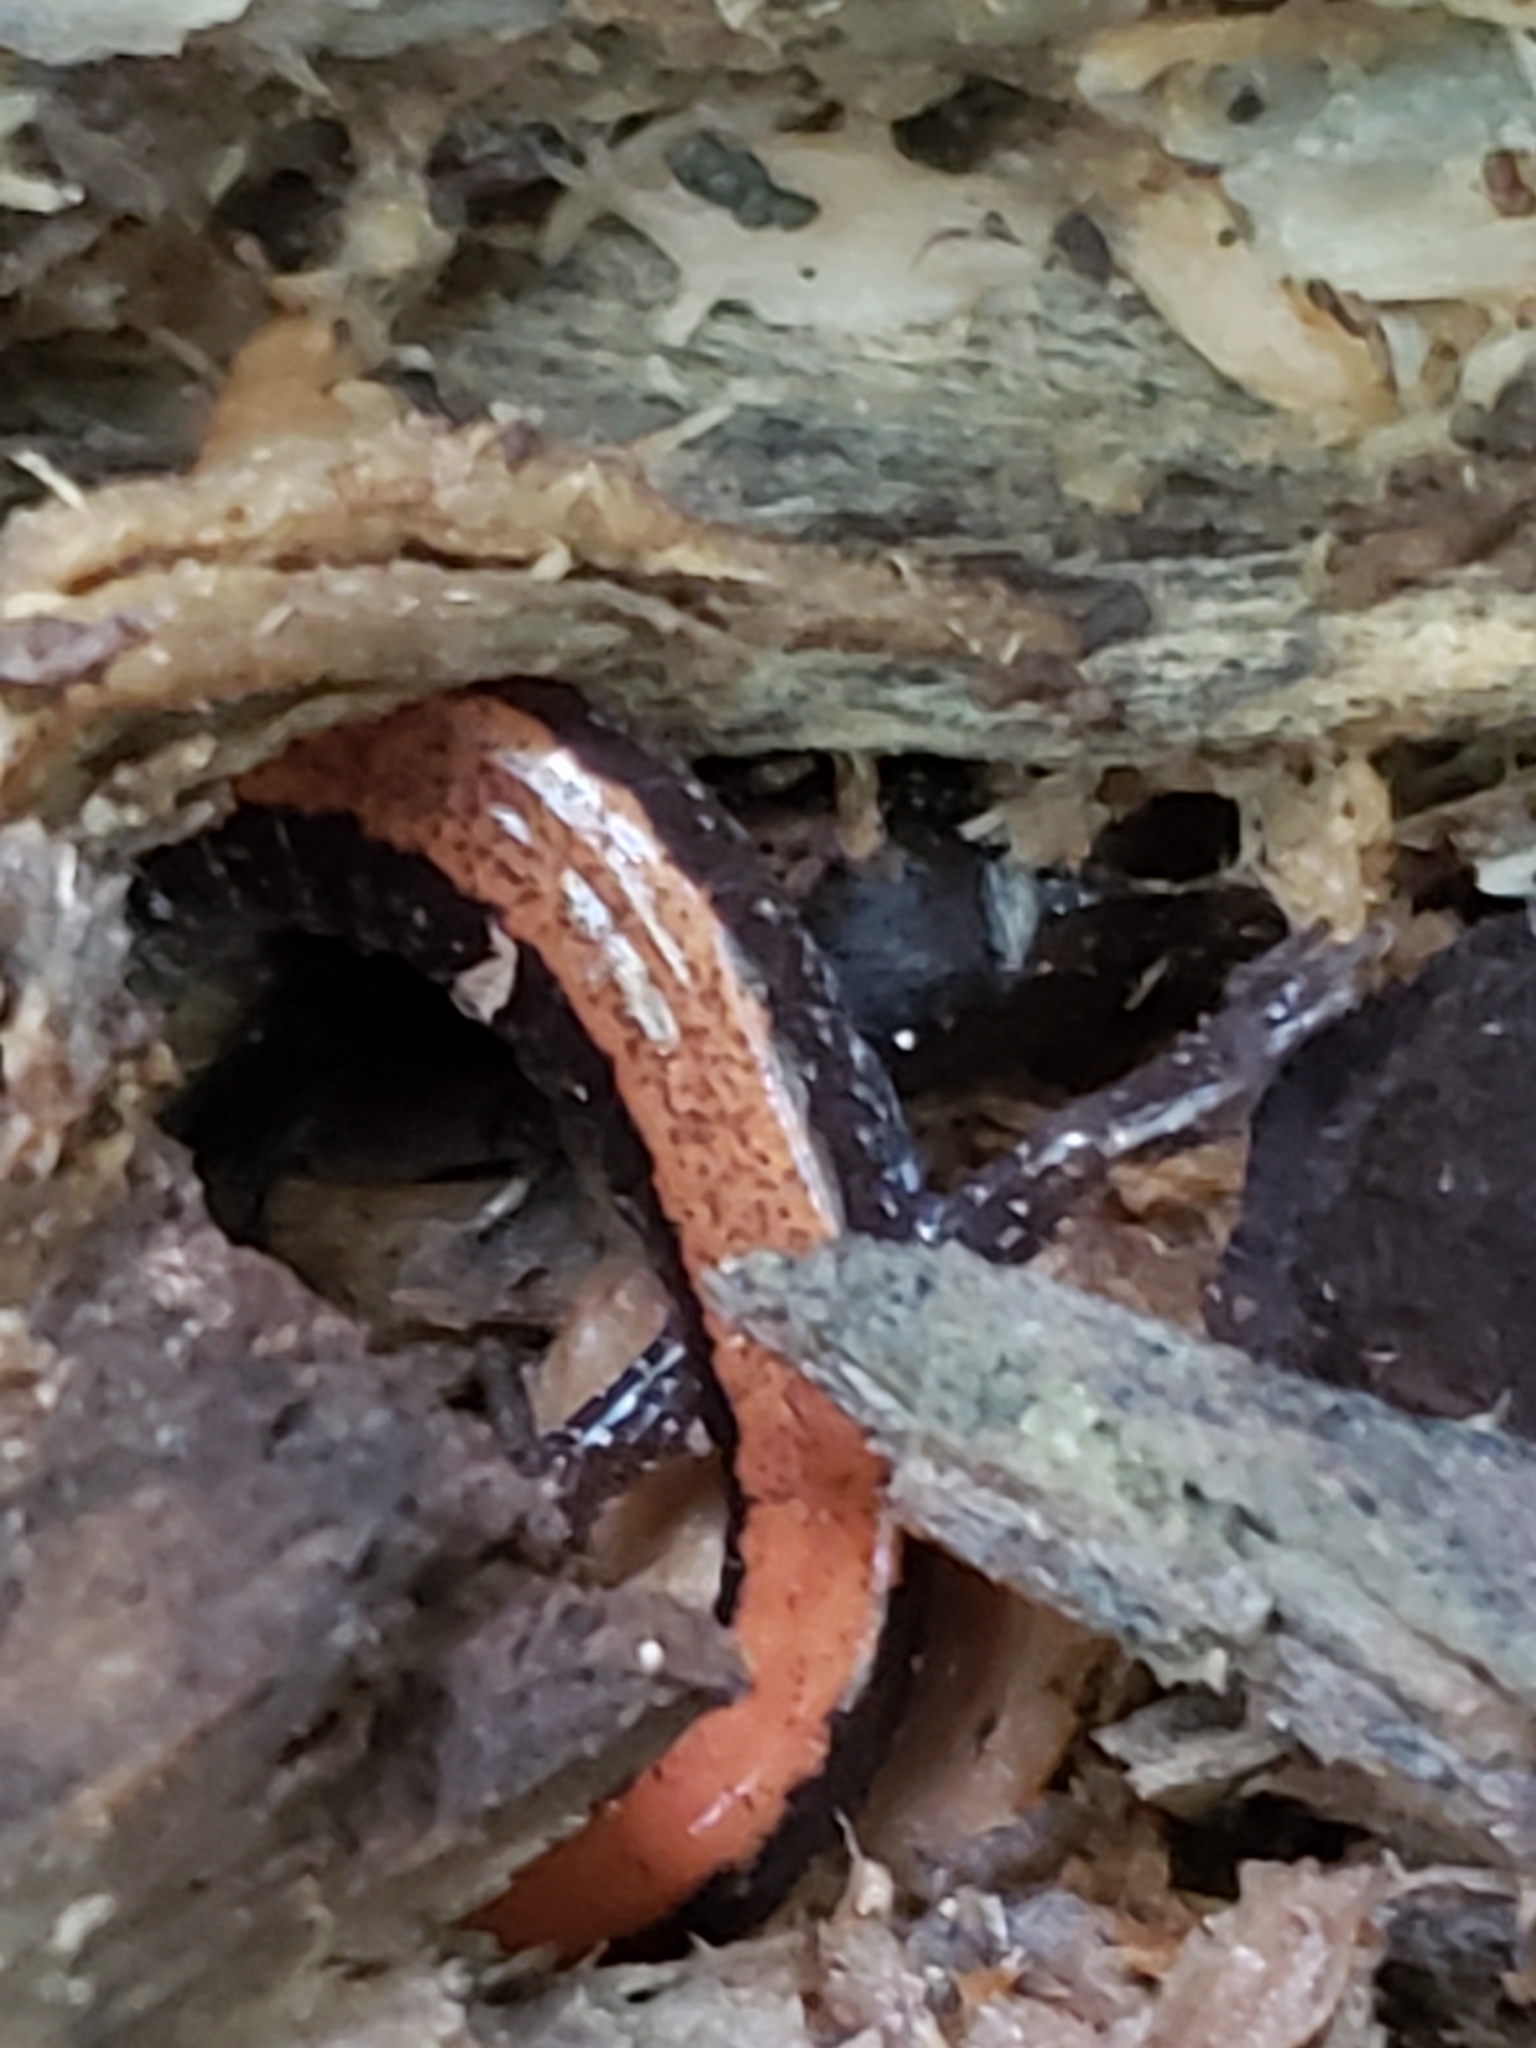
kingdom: Animalia
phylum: Chordata
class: Amphibia
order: Caudata
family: Plethodontidae
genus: Plethodon
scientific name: Plethodon cinereus
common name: Redback salamander
